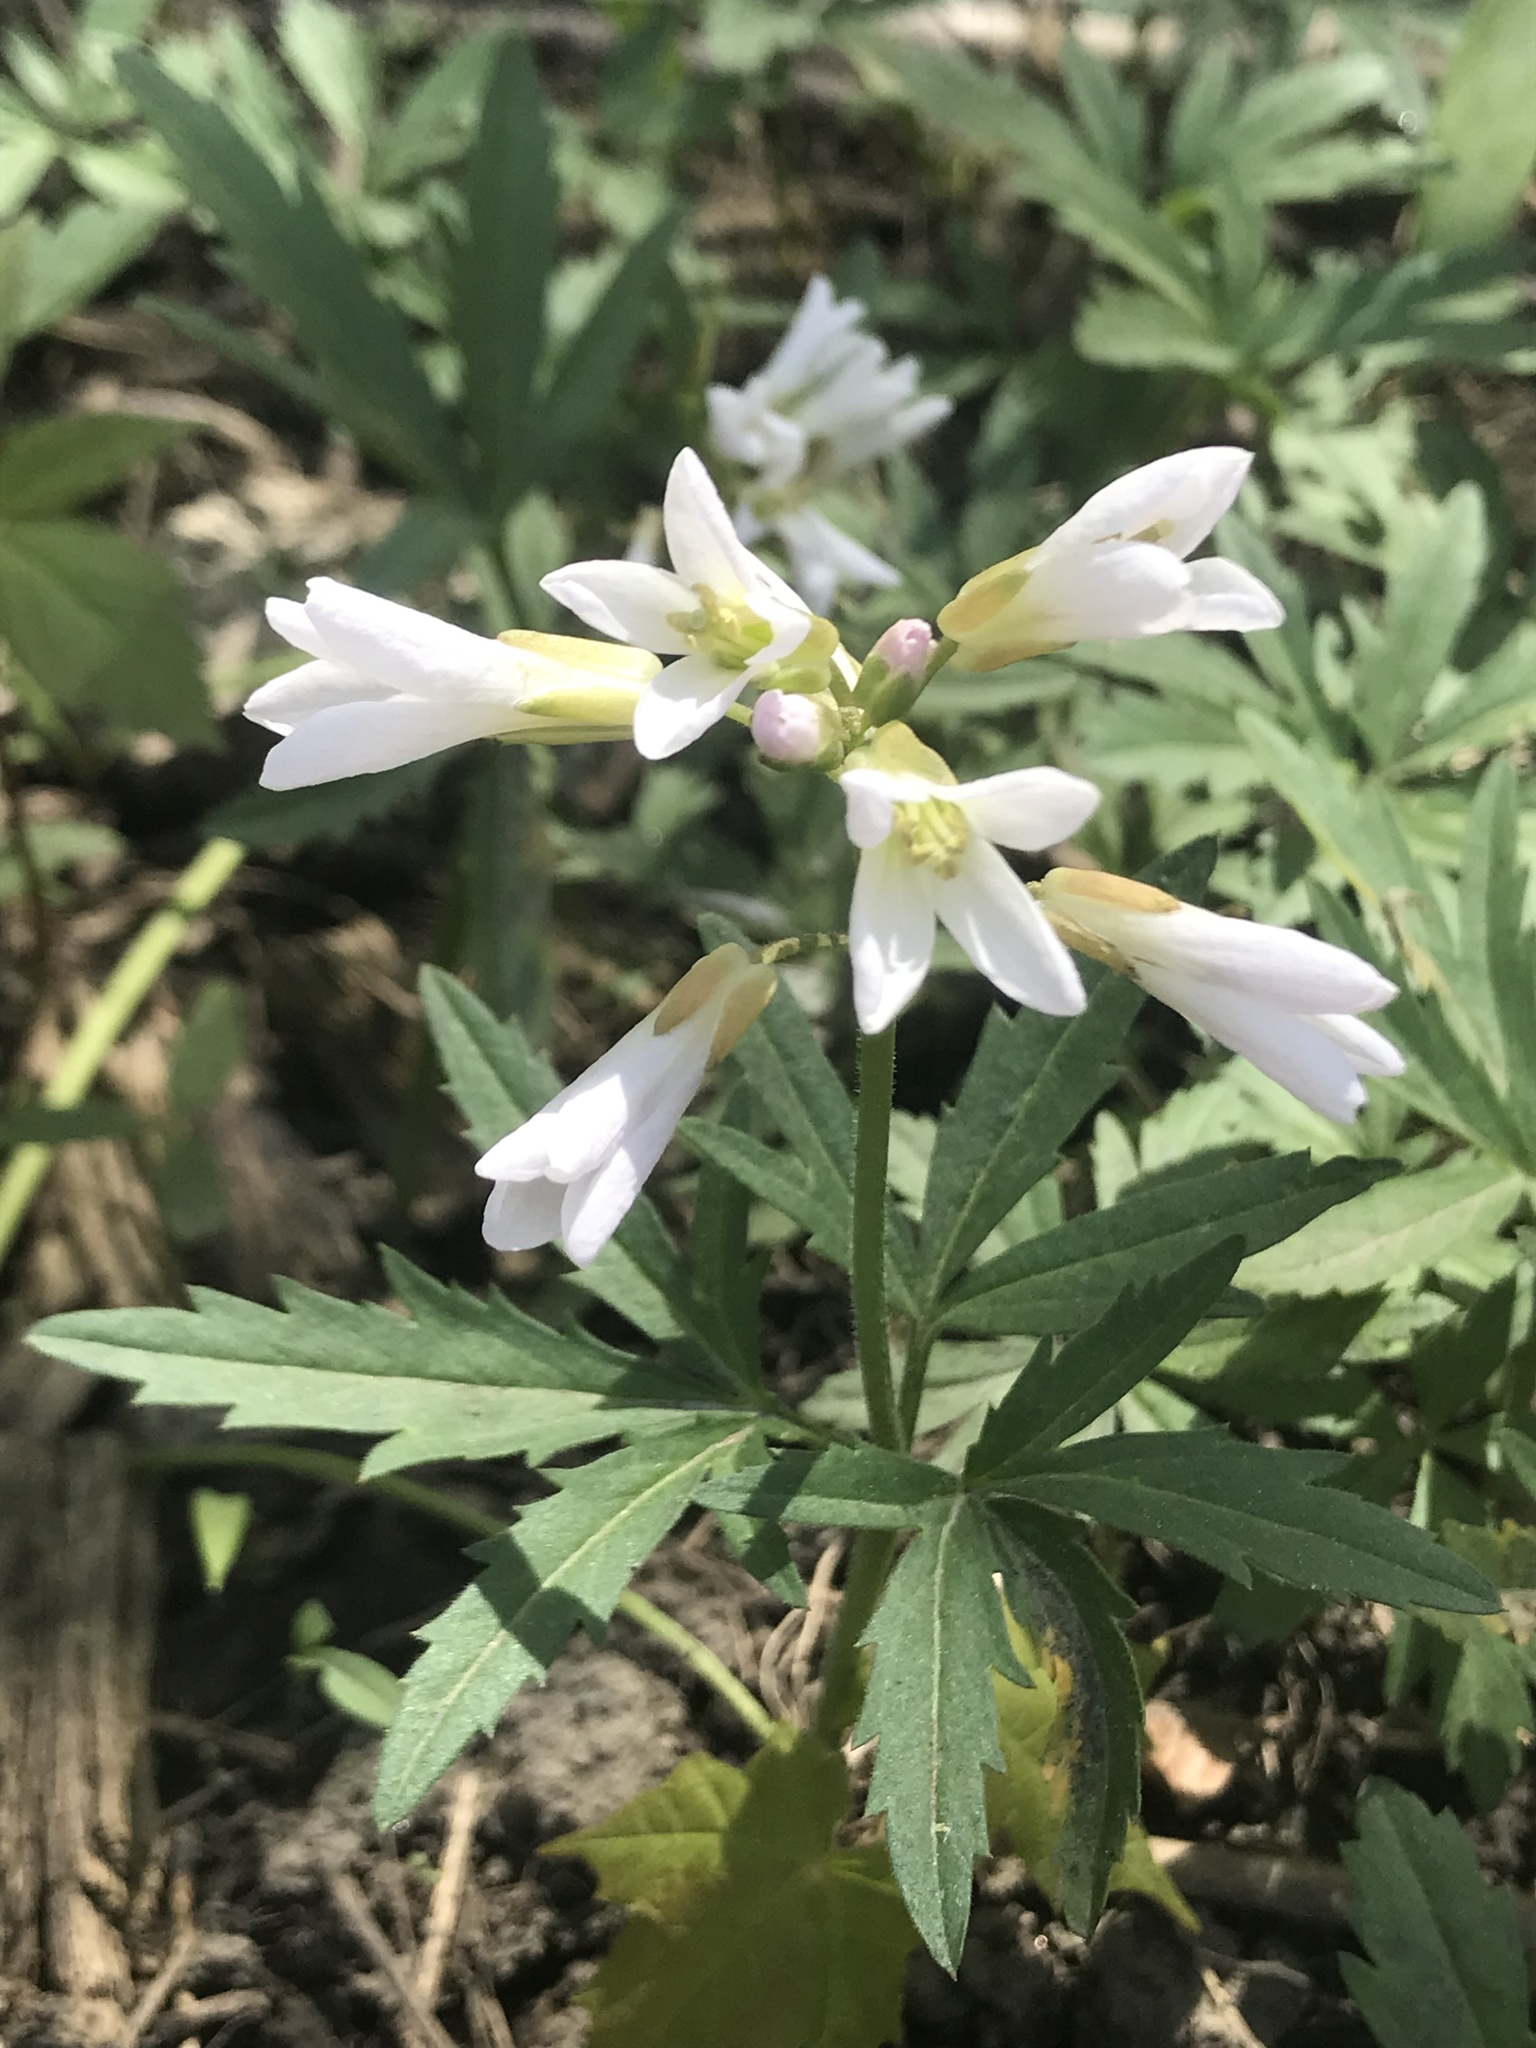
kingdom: Plantae
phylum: Tracheophyta
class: Magnoliopsida
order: Brassicales
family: Brassicaceae
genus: Cardamine
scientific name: Cardamine concatenata
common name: Cut-leaf toothcup
